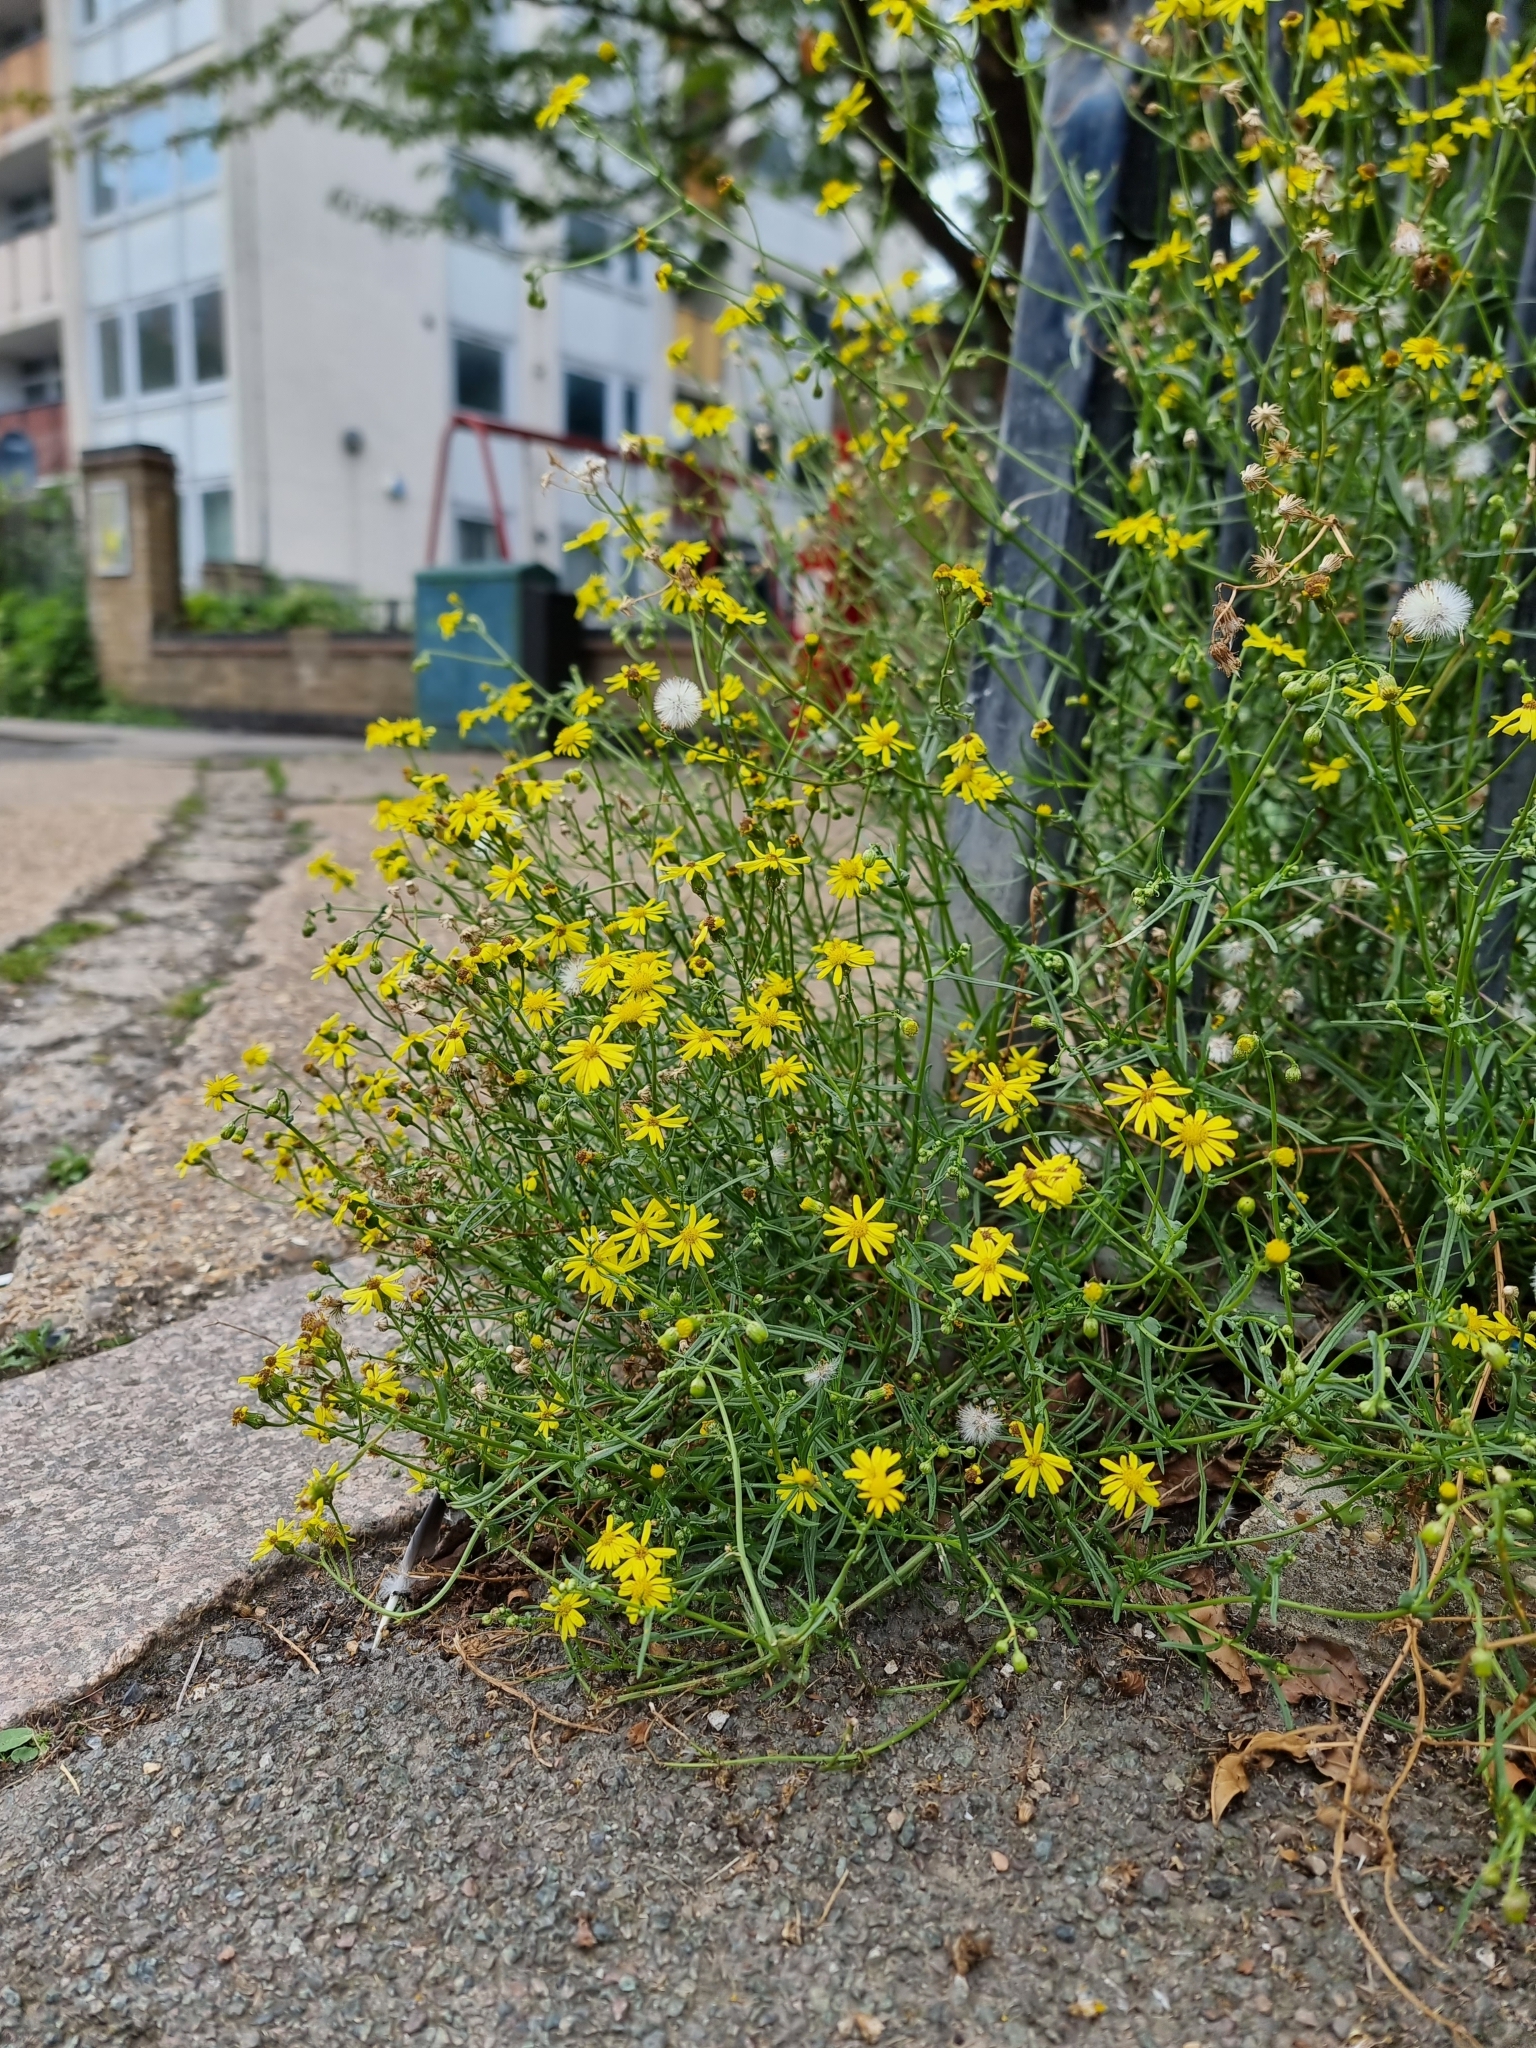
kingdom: Plantae
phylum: Tracheophyta
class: Magnoliopsida
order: Asterales
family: Asteraceae
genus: Senecio
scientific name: Senecio inaequidens
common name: Narrow-leaved ragwort
